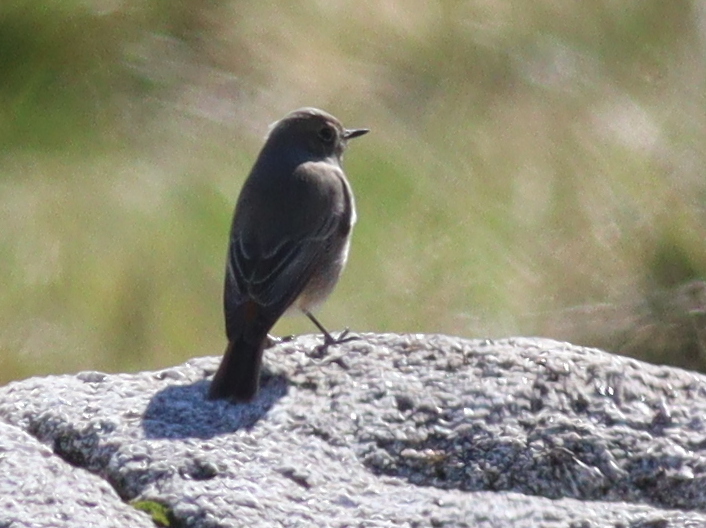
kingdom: Animalia
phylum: Chordata
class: Aves
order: Passeriformes
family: Muscicapidae
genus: Phoenicurus
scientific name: Phoenicurus ochruros
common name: Black redstart
